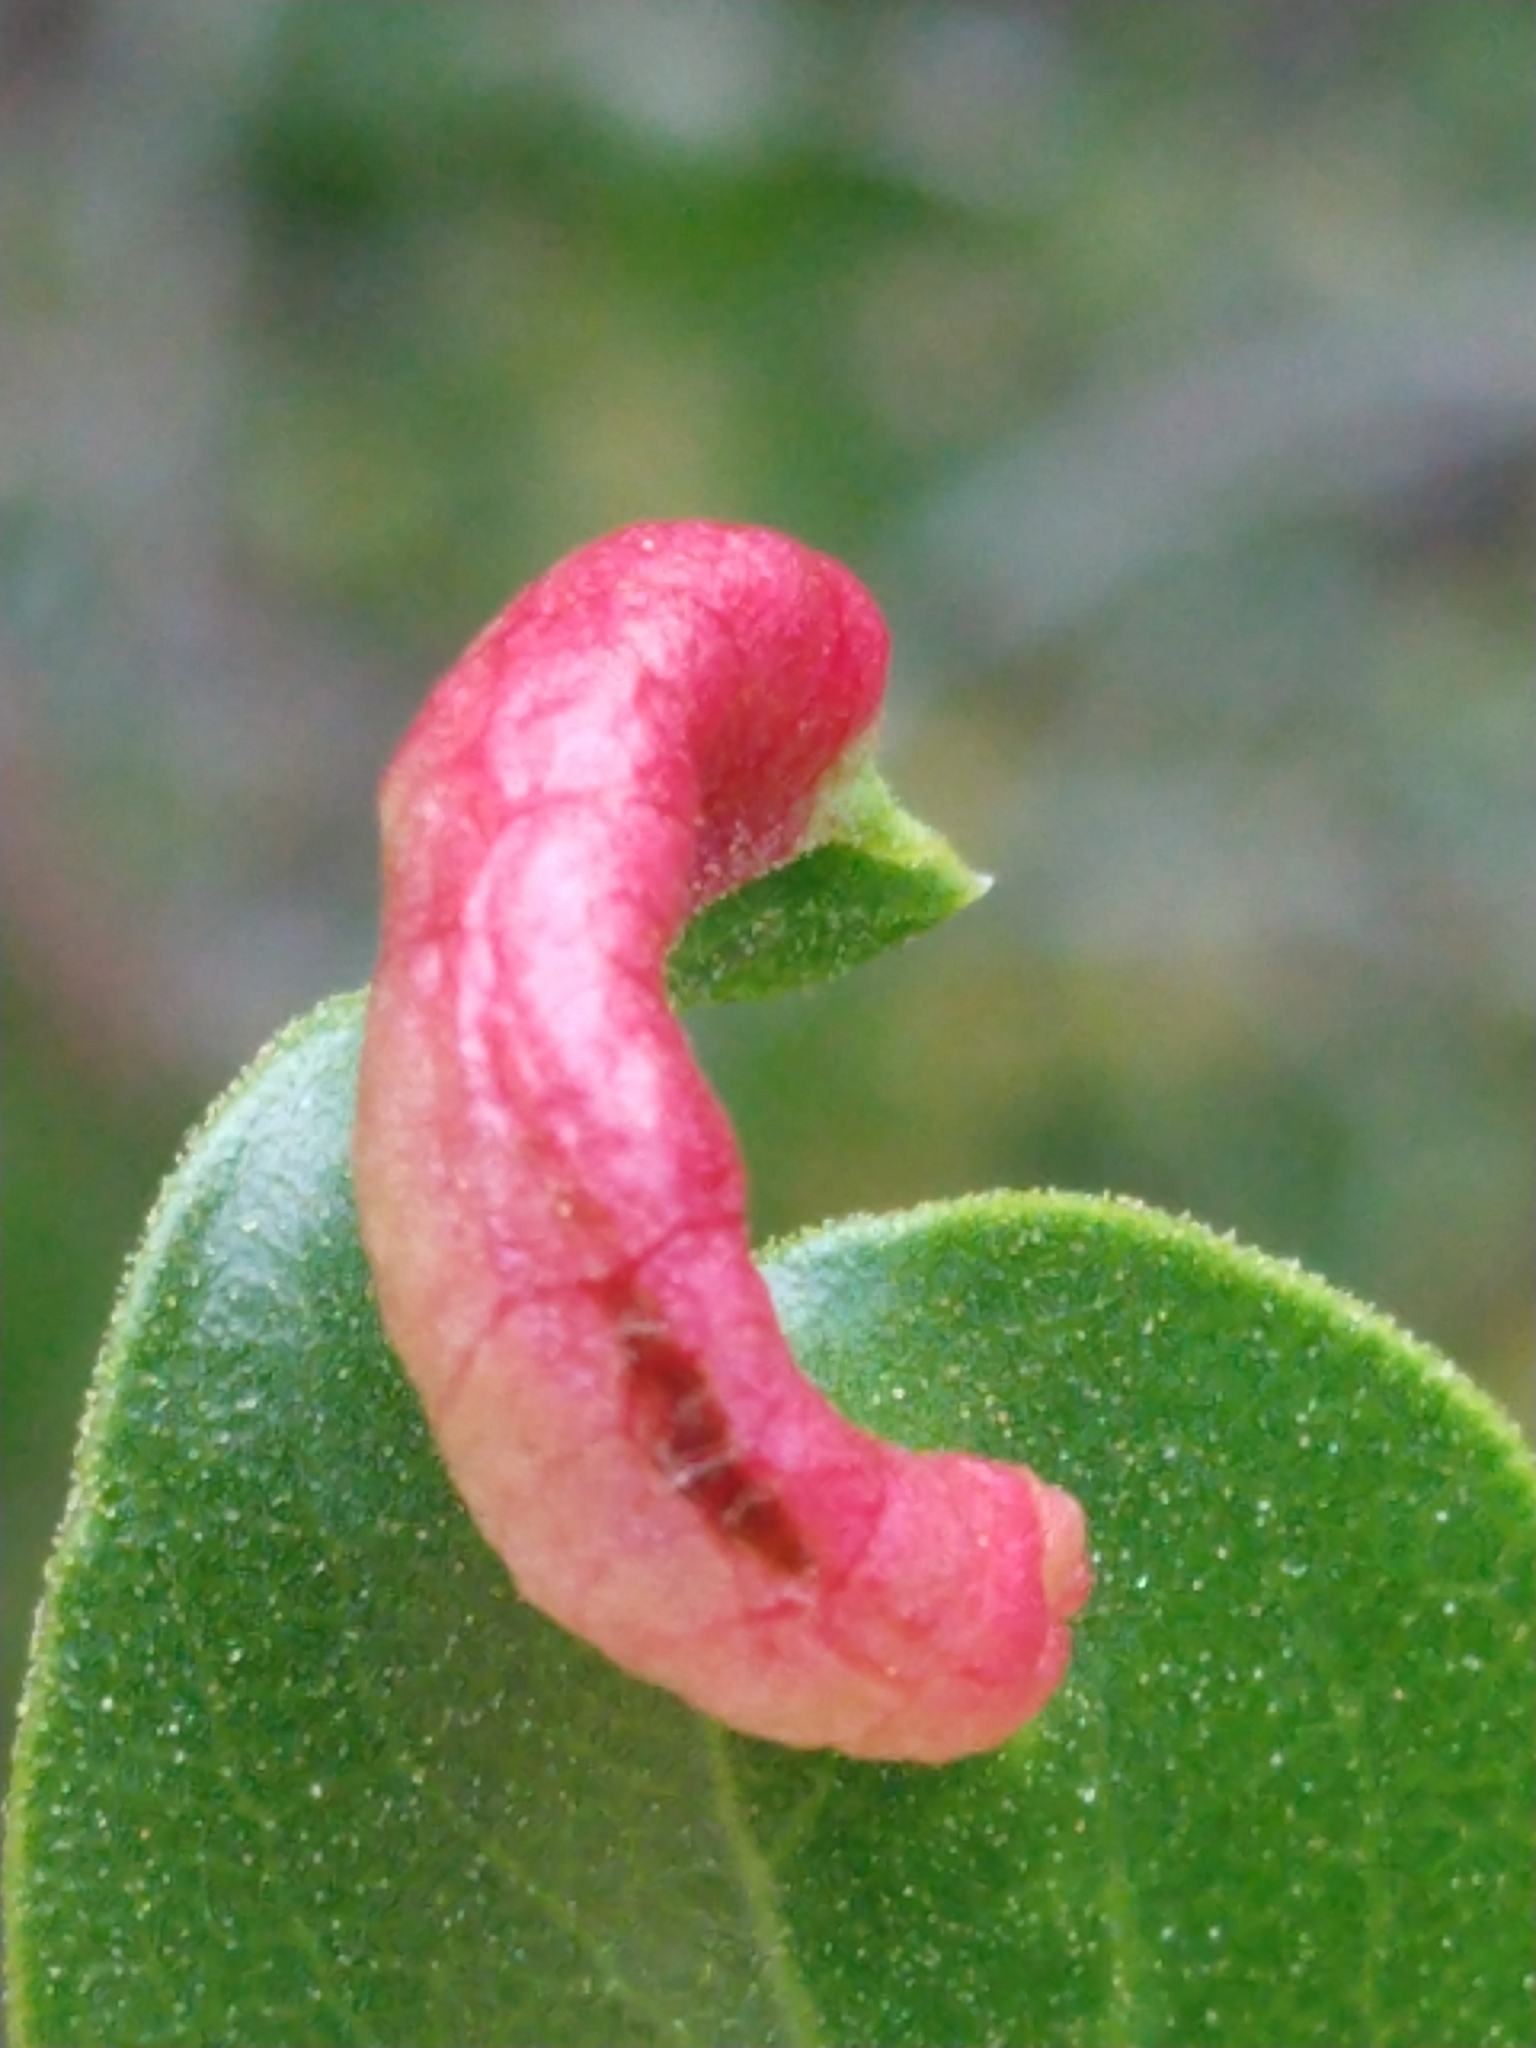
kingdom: Animalia
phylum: Arthropoda
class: Insecta
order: Hemiptera
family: Aphididae
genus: Tamalia
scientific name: Tamalia coweni
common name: Manzanita leafgall aphid
